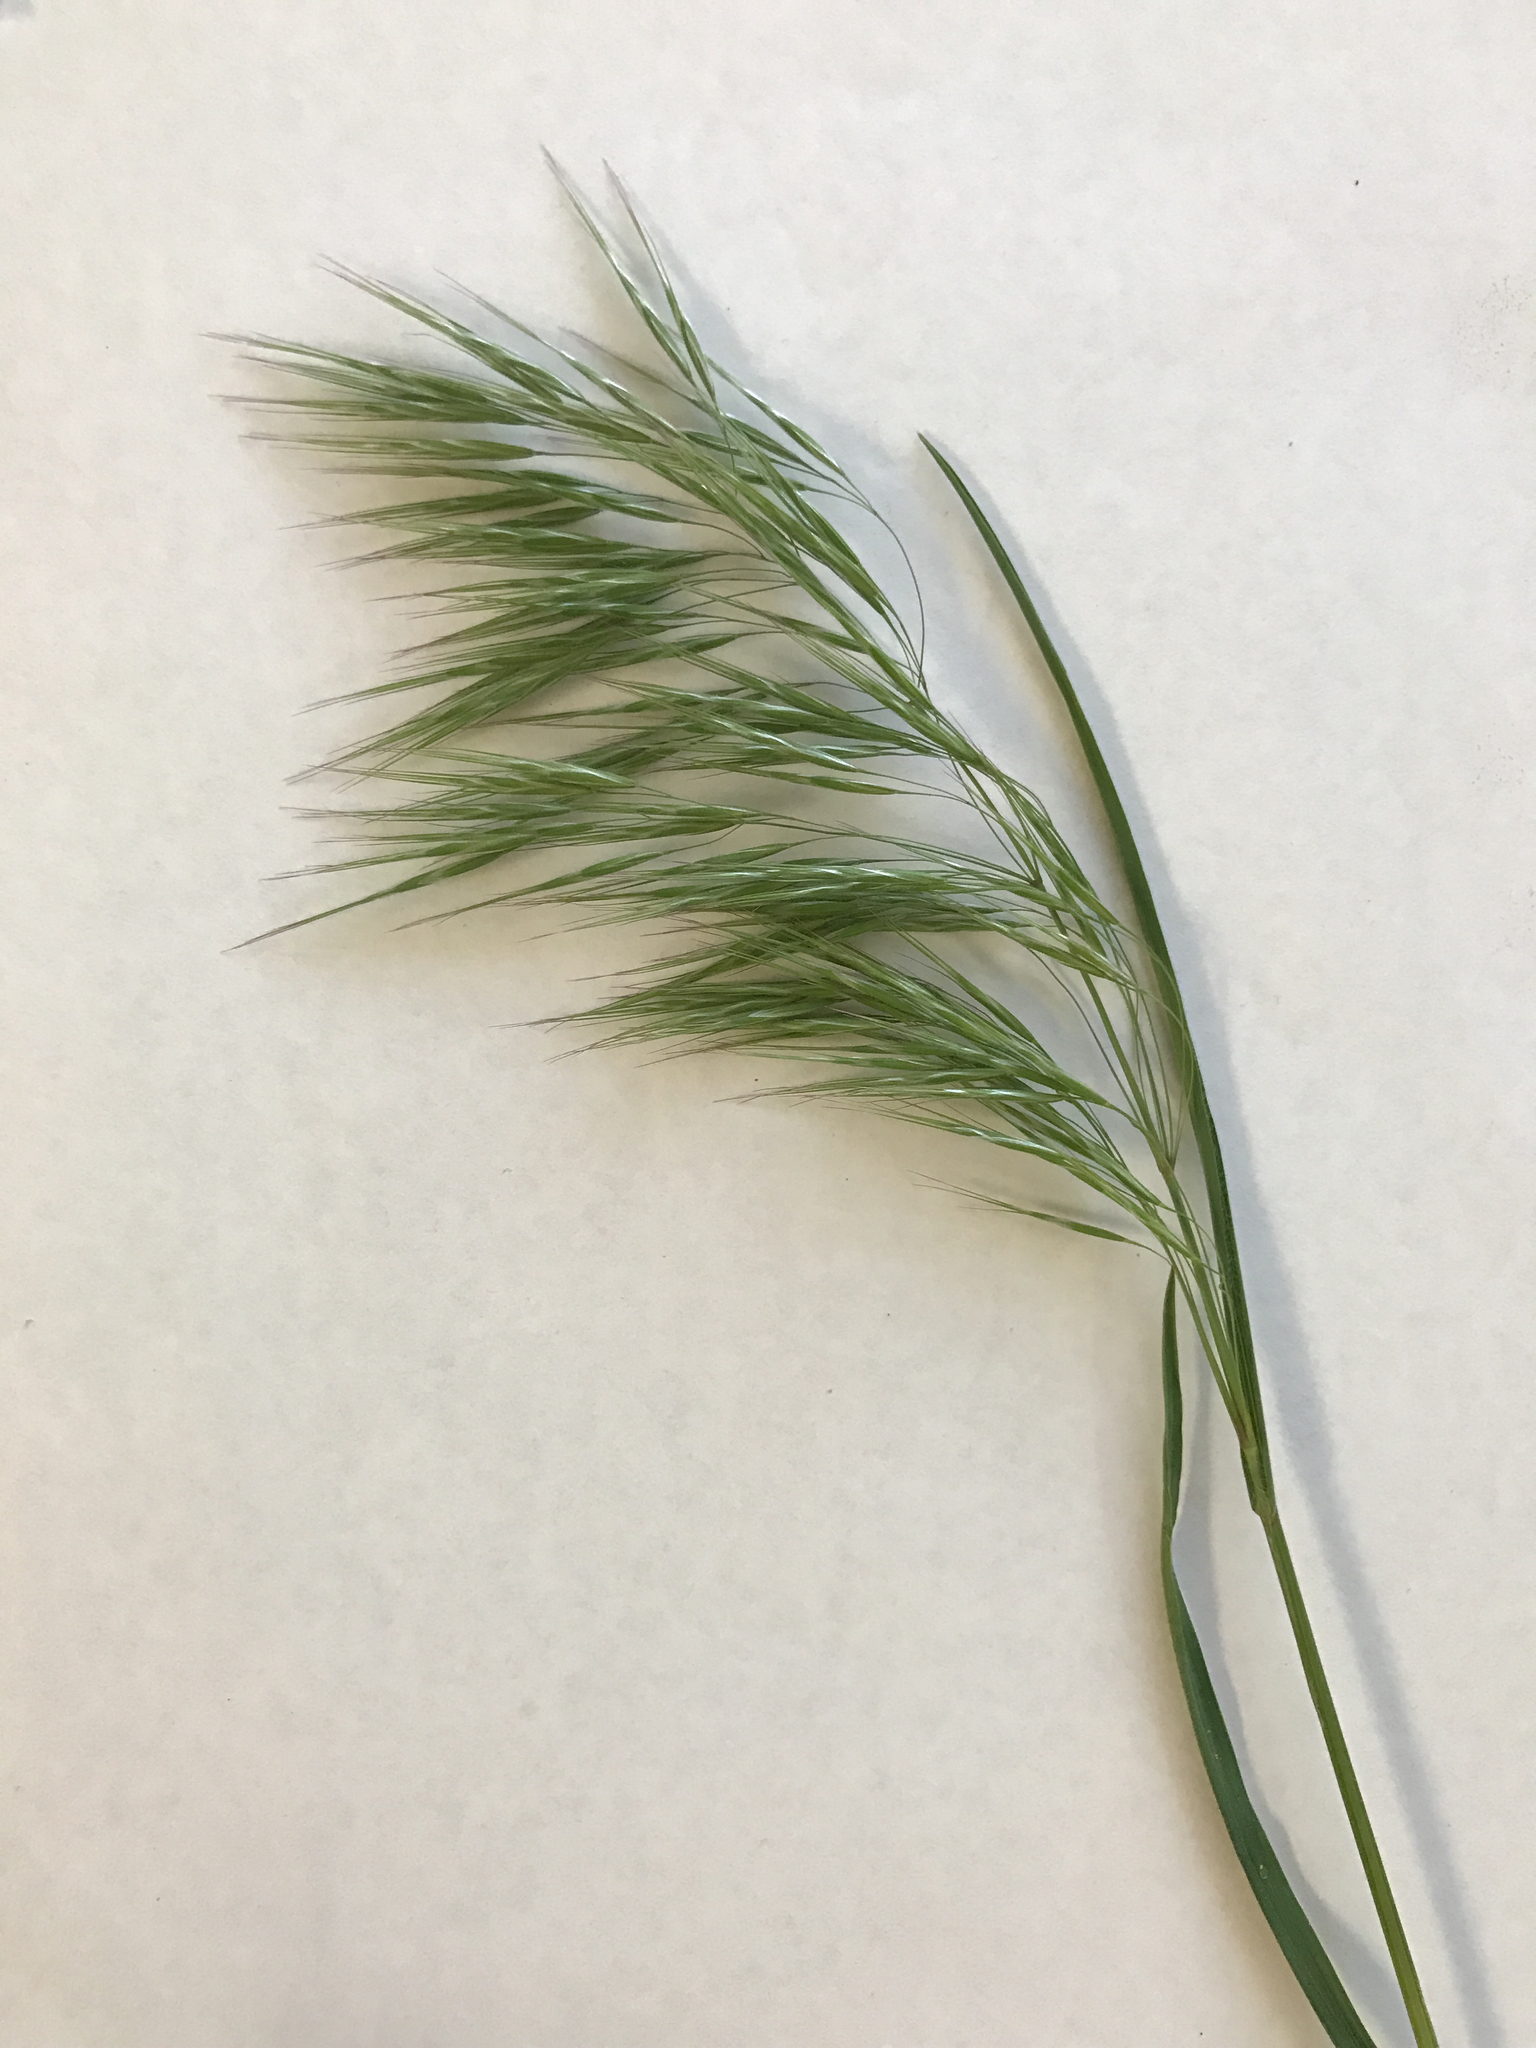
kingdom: Plantae
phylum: Tracheophyta
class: Liliopsida
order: Poales
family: Poaceae
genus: Bromus
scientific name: Bromus tectorum
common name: Cheatgrass
